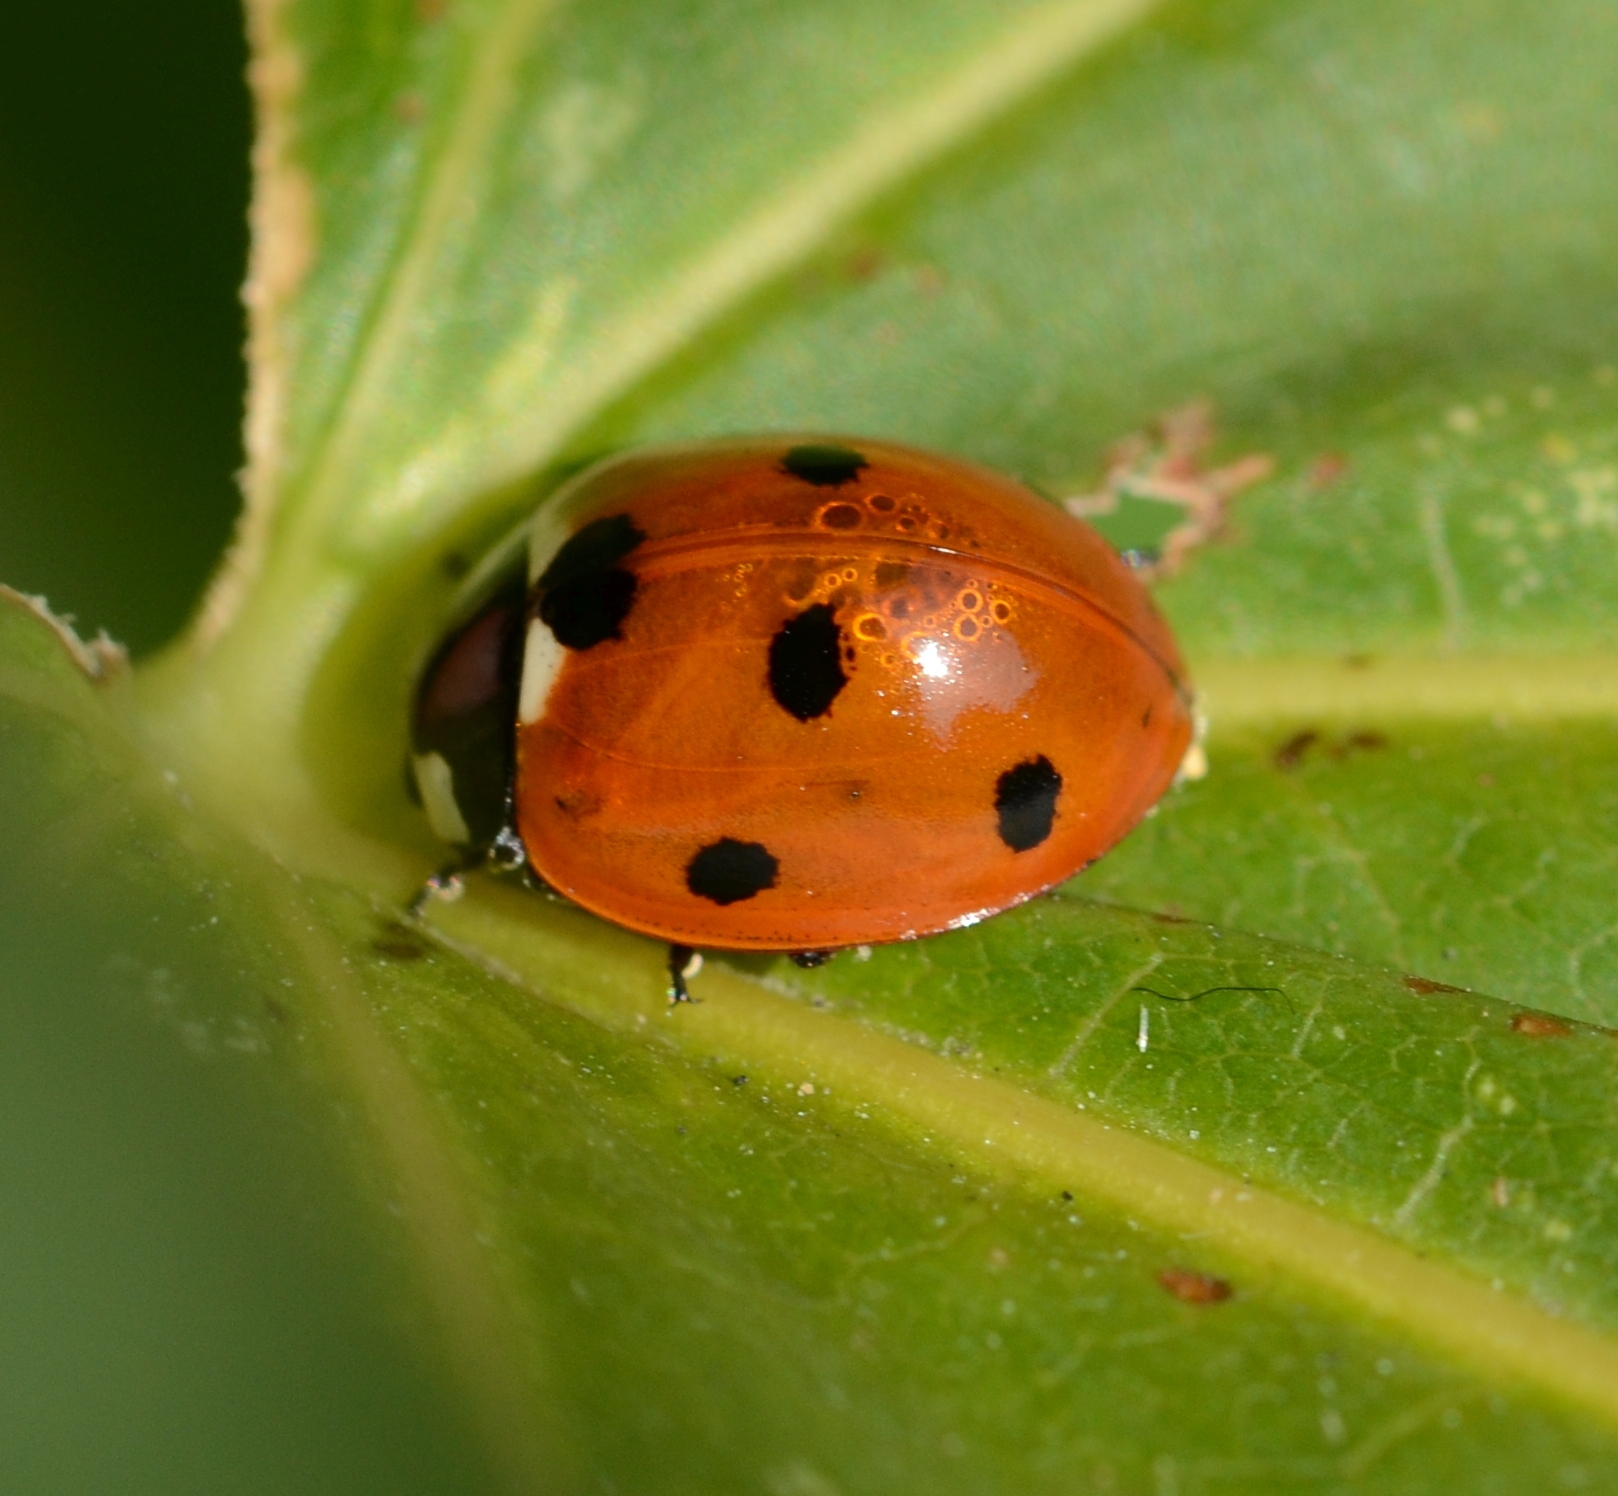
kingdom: Animalia
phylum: Arthropoda
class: Insecta
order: Coleoptera
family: Coccinellidae
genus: Coccinella
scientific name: Coccinella septempunctata
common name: Sevenspotted lady beetle
